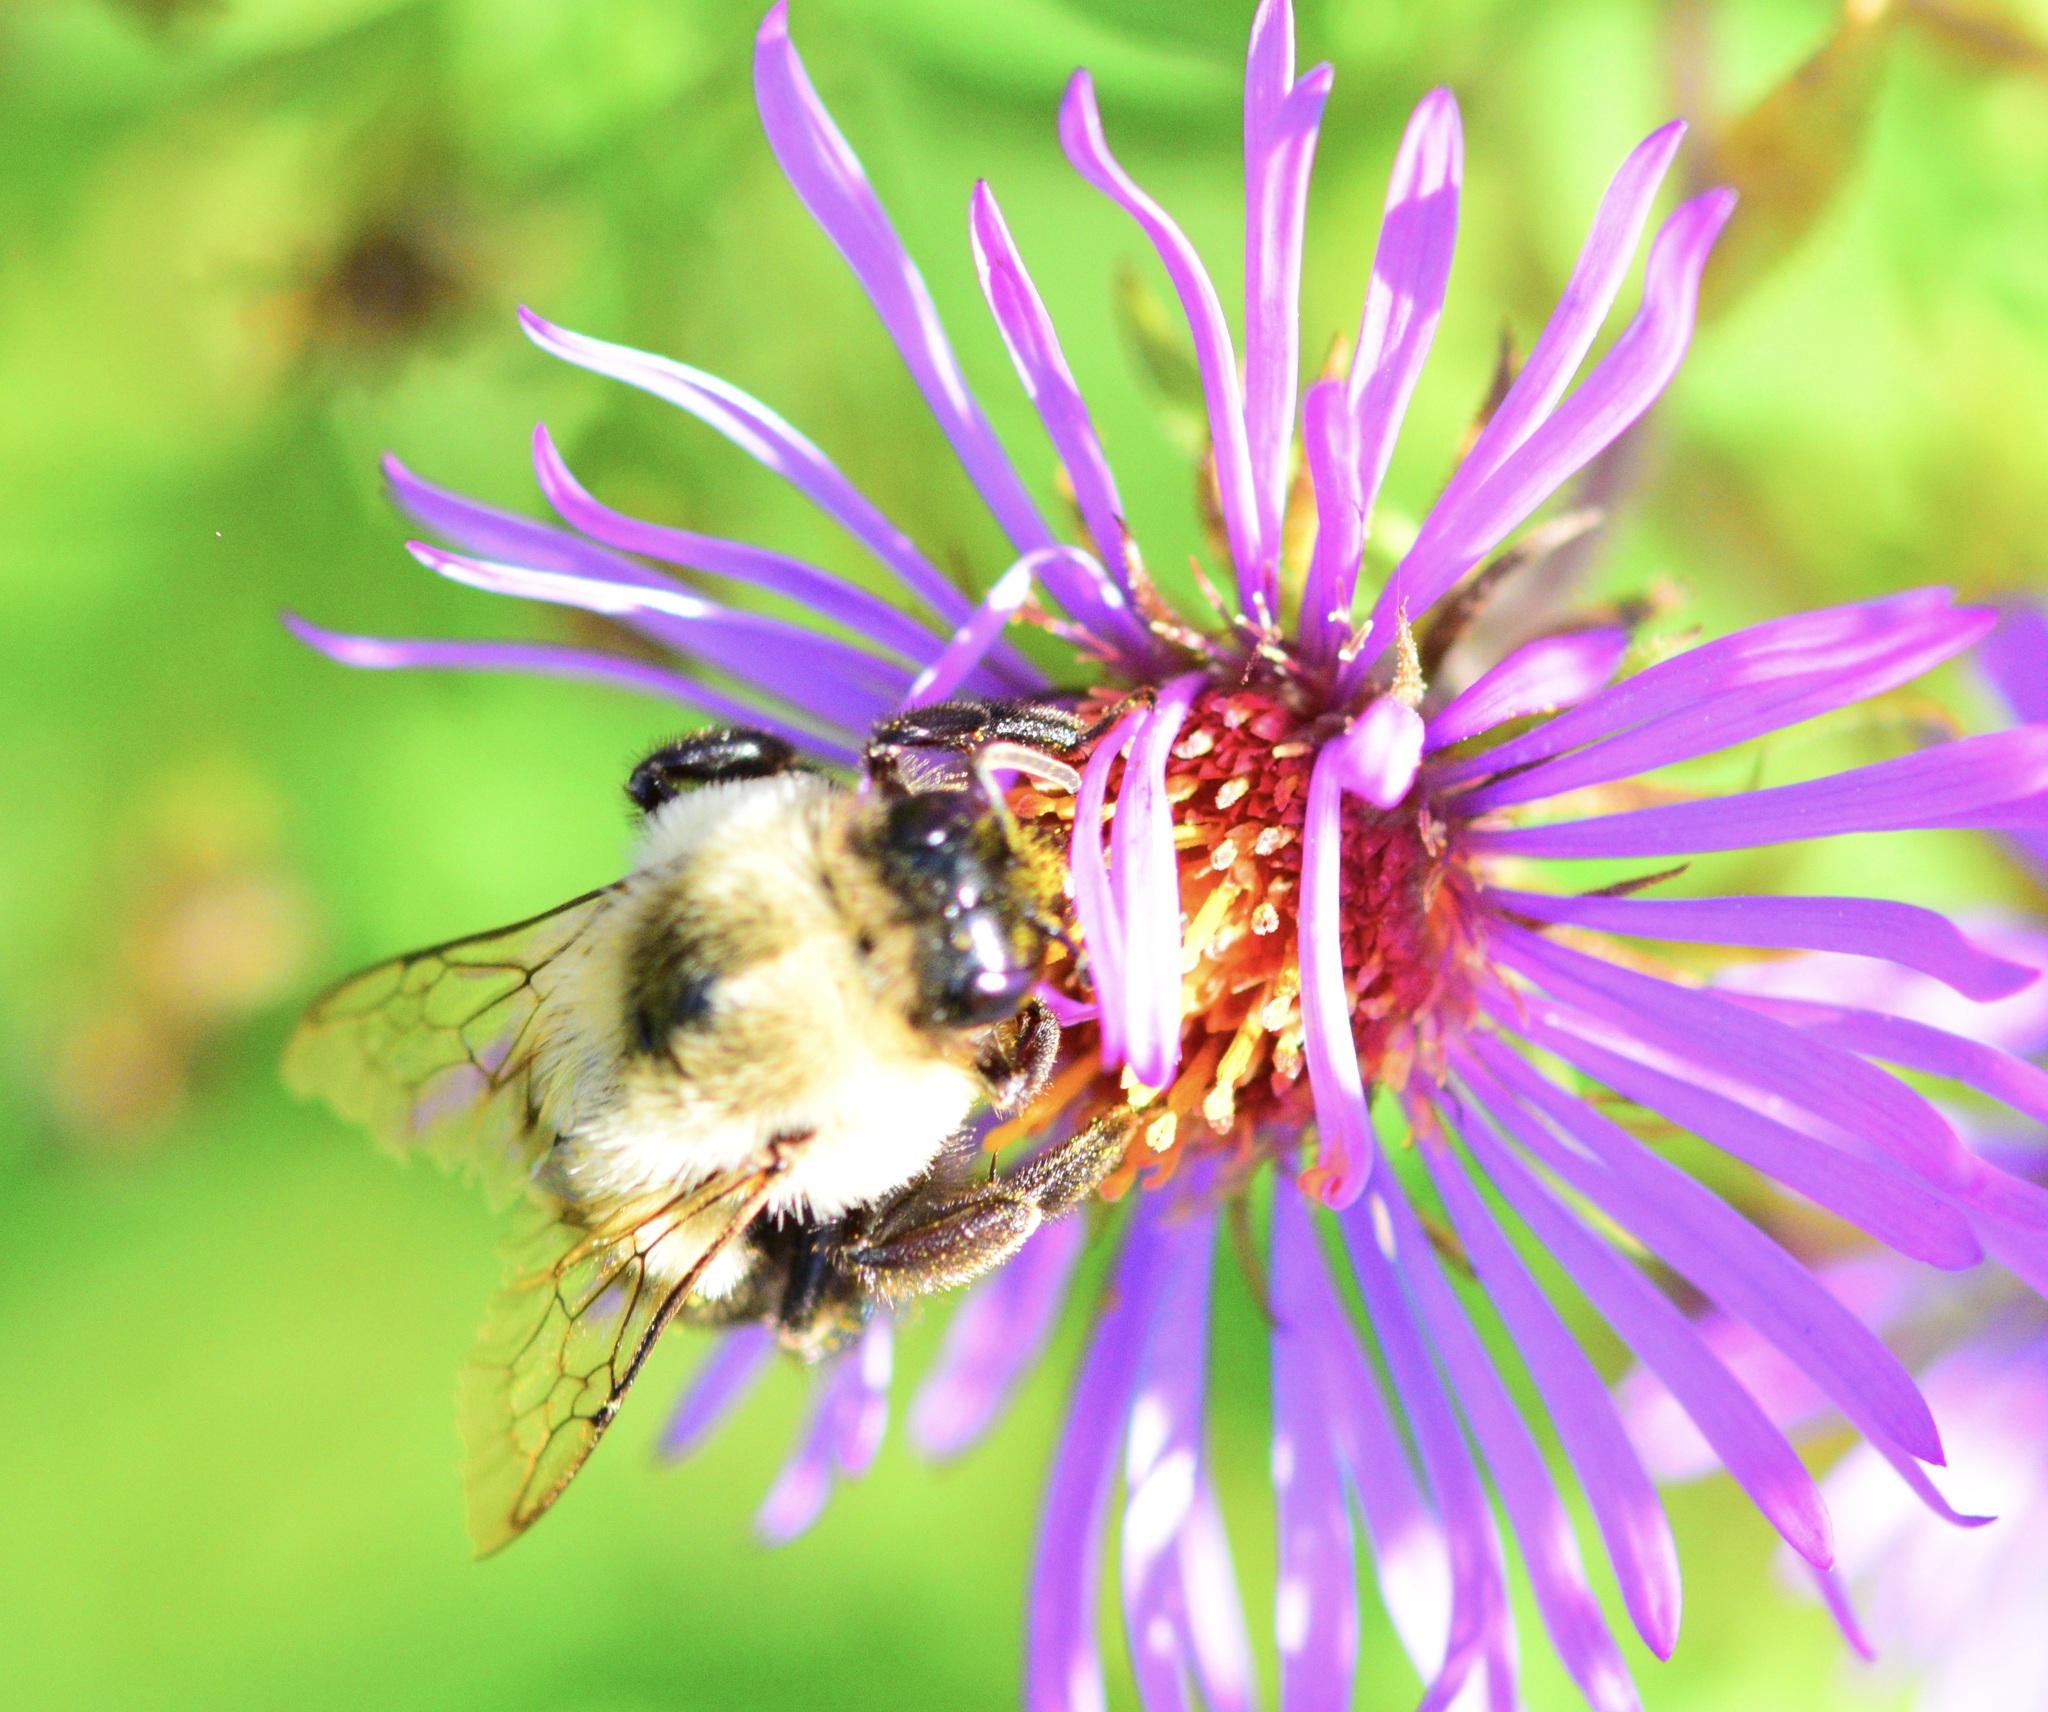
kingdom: Animalia
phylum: Arthropoda
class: Insecta
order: Hymenoptera
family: Apidae
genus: Bombus
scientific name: Bombus impatiens
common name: Common eastern bumble bee
